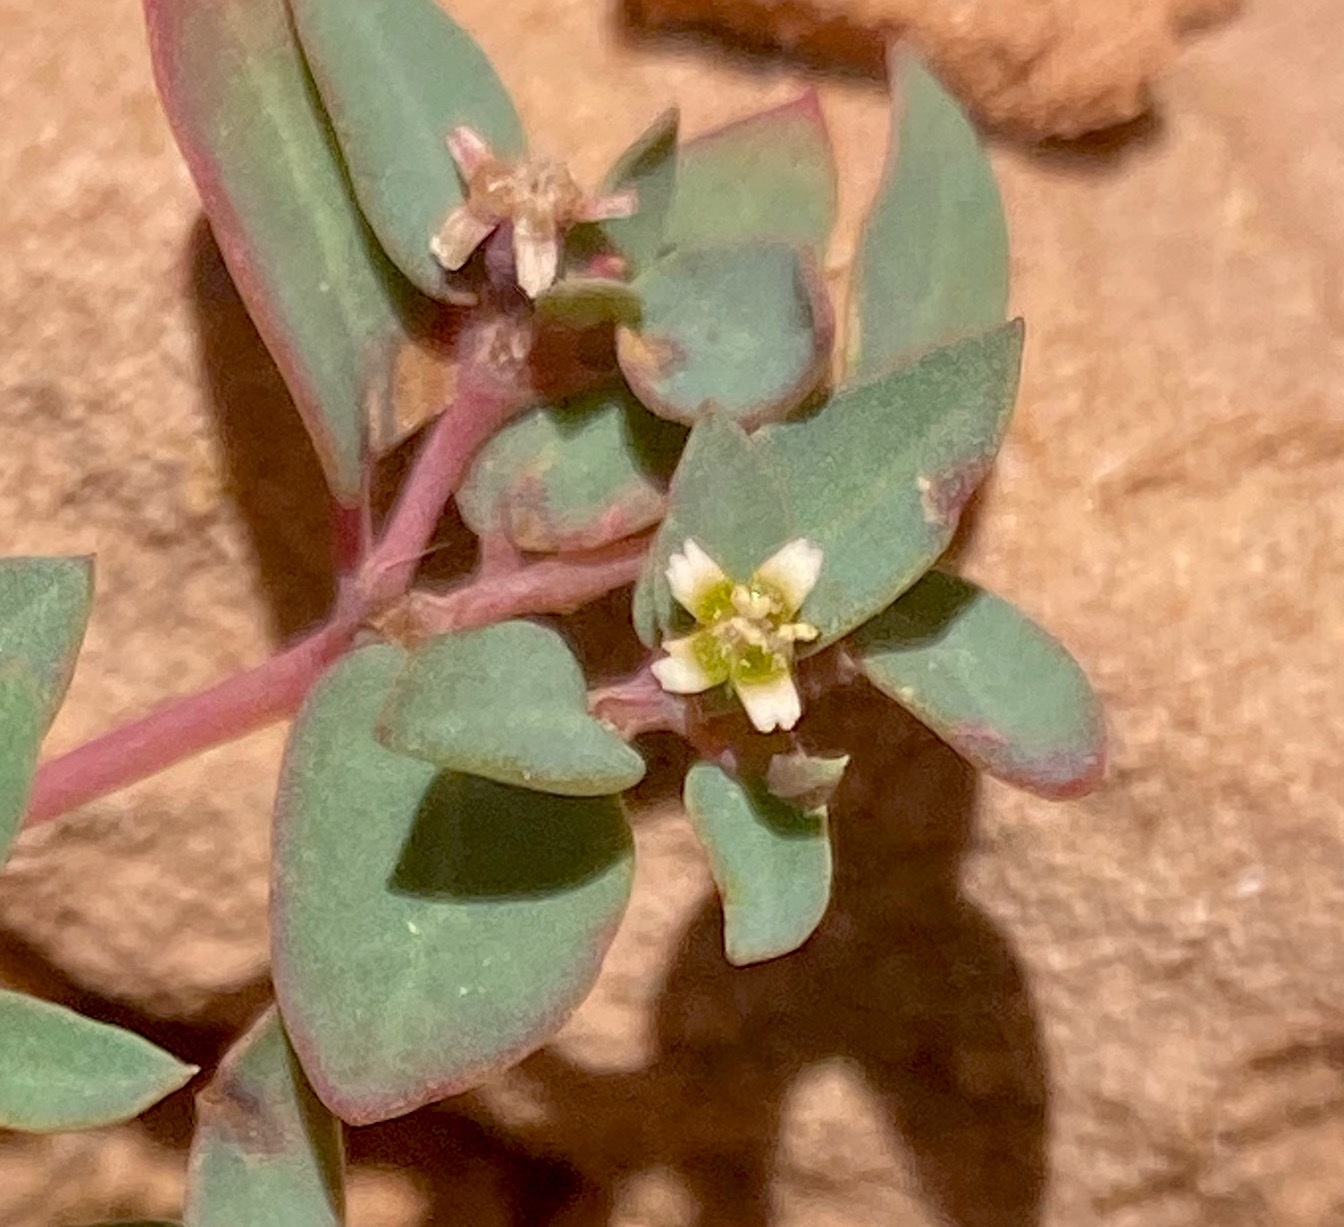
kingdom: Plantae
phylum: Tracheophyta
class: Magnoliopsida
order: Malpighiales
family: Euphorbiaceae
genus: Euphorbia
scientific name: Euphorbia fendleri
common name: Fendler's euphorbia
